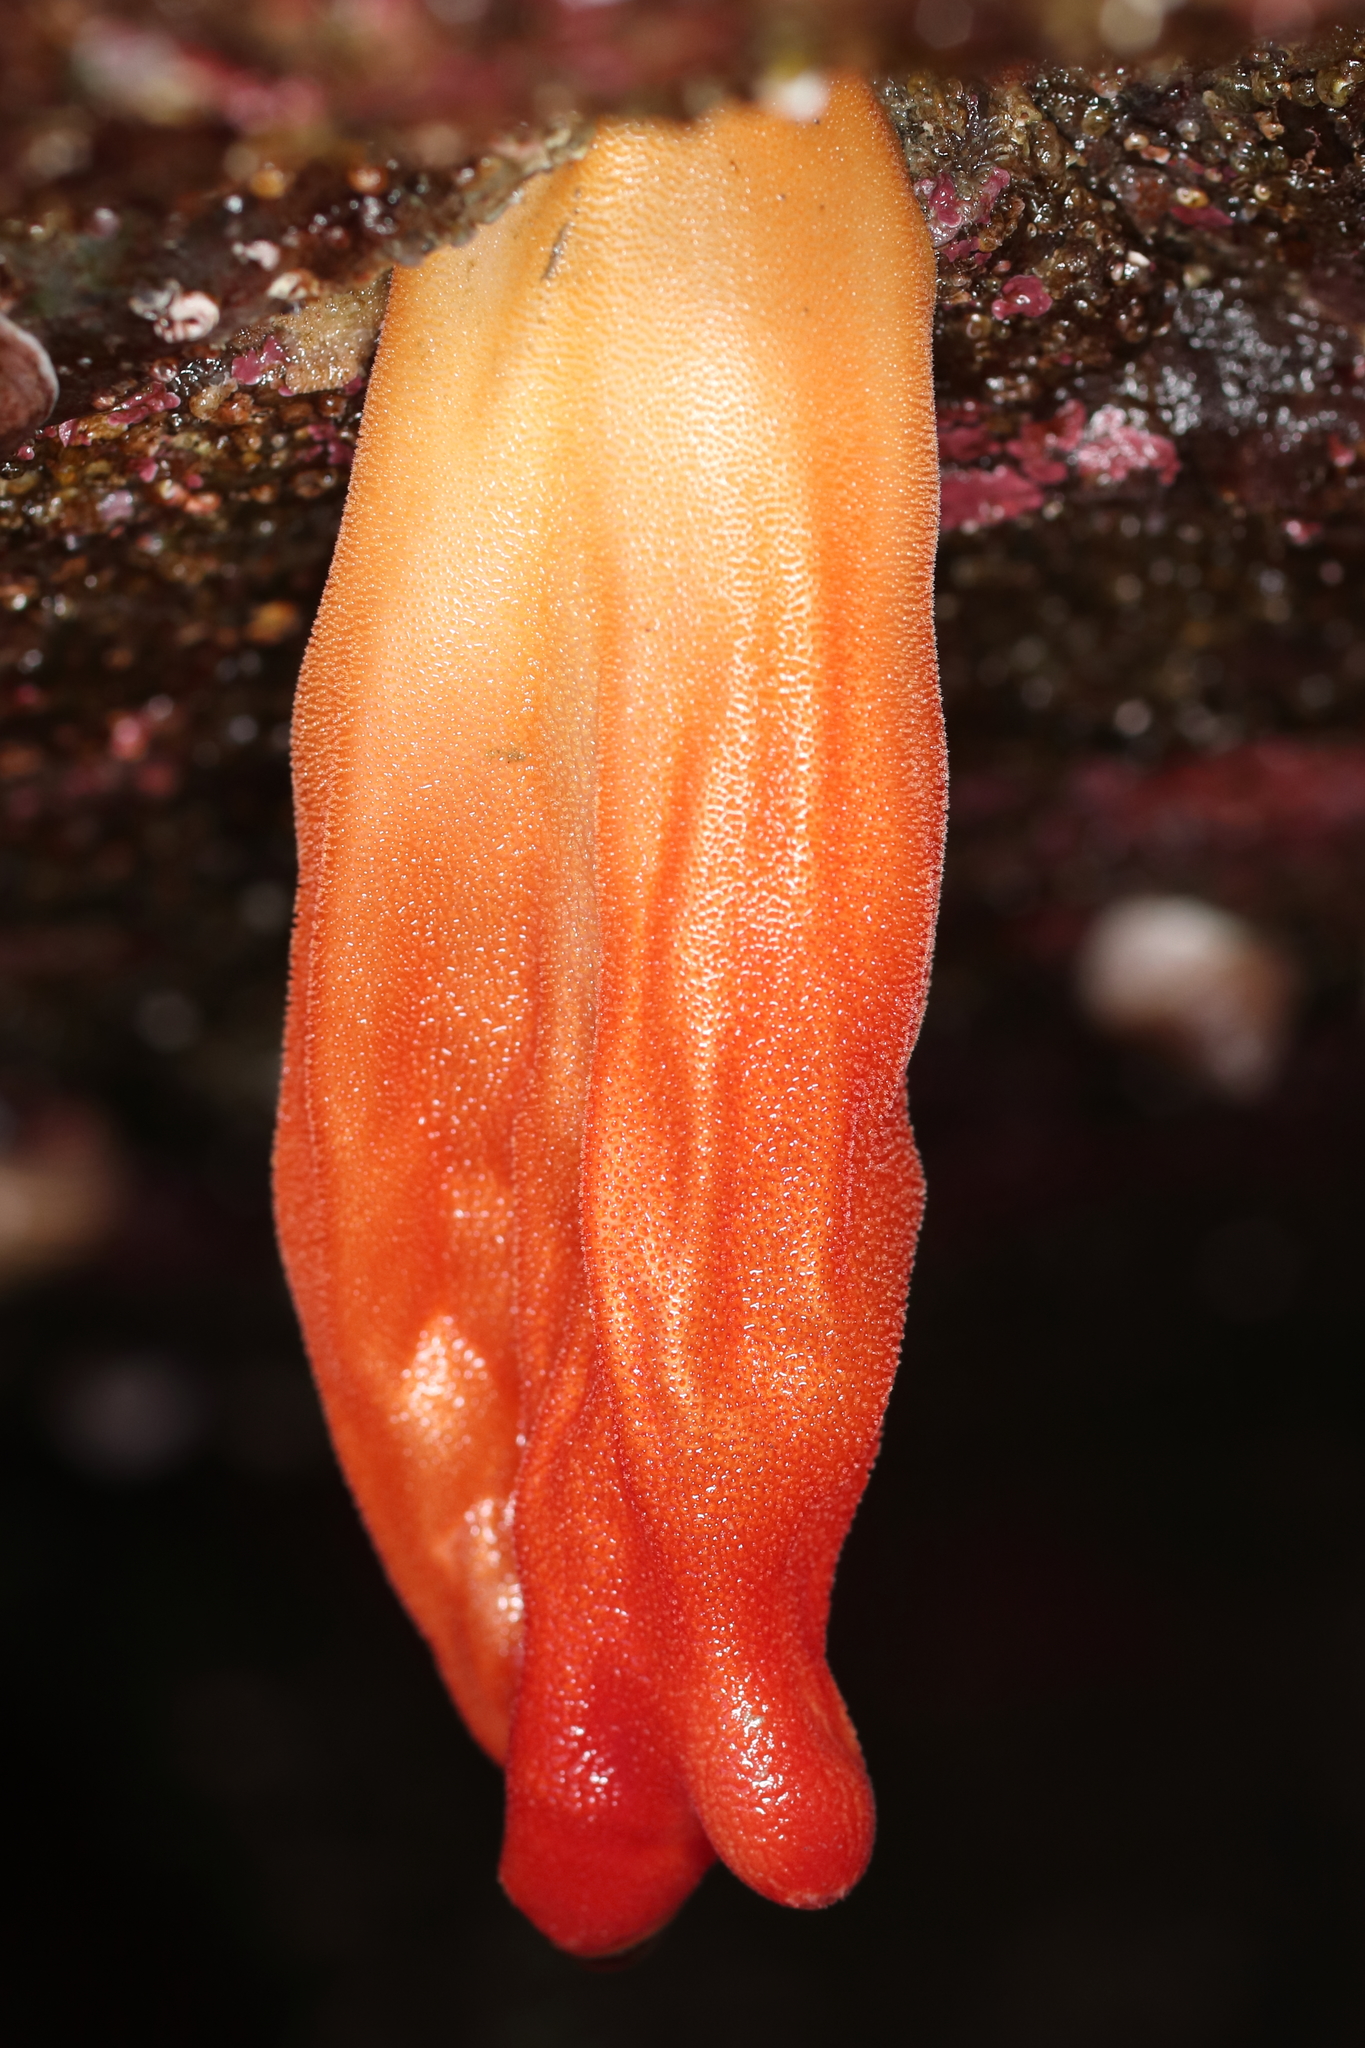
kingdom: Animalia
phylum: Chordata
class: Ascidiacea
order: Stolidobranchia
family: Pyuridae
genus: Halocynthia
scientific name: Halocynthia aurantium
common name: Sea peach
